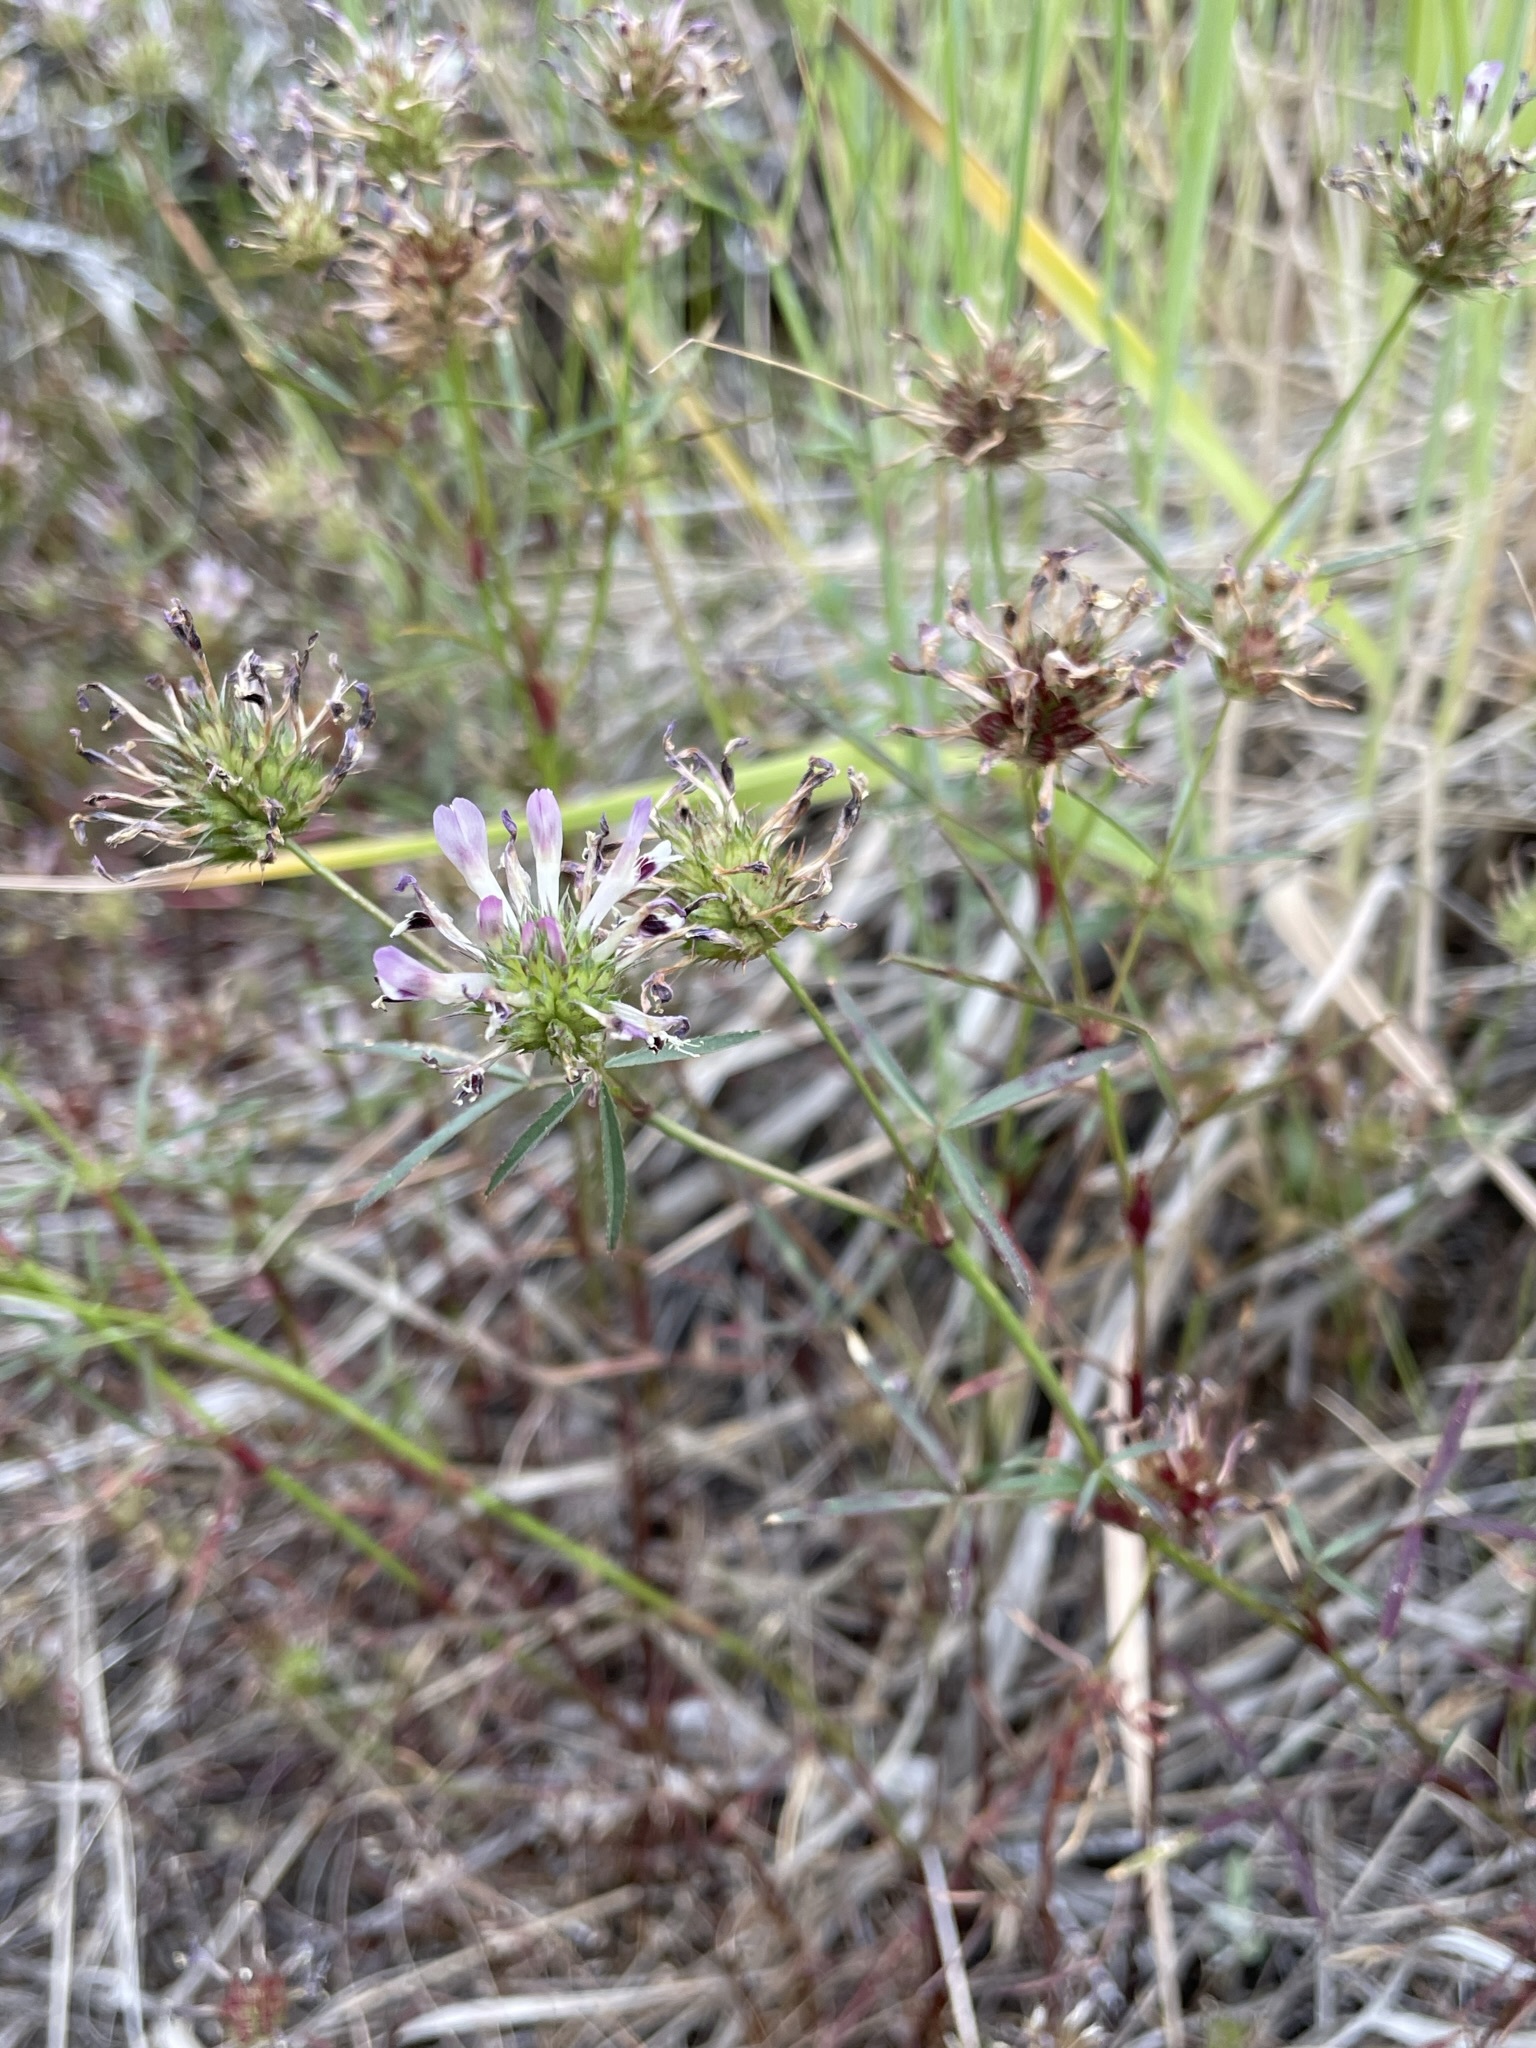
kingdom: Plantae
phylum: Tracheophyta
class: Magnoliopsida
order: Fabales
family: Fabaceae
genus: Trifolium
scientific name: Trifolium willdenovii
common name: Tomcat clover
